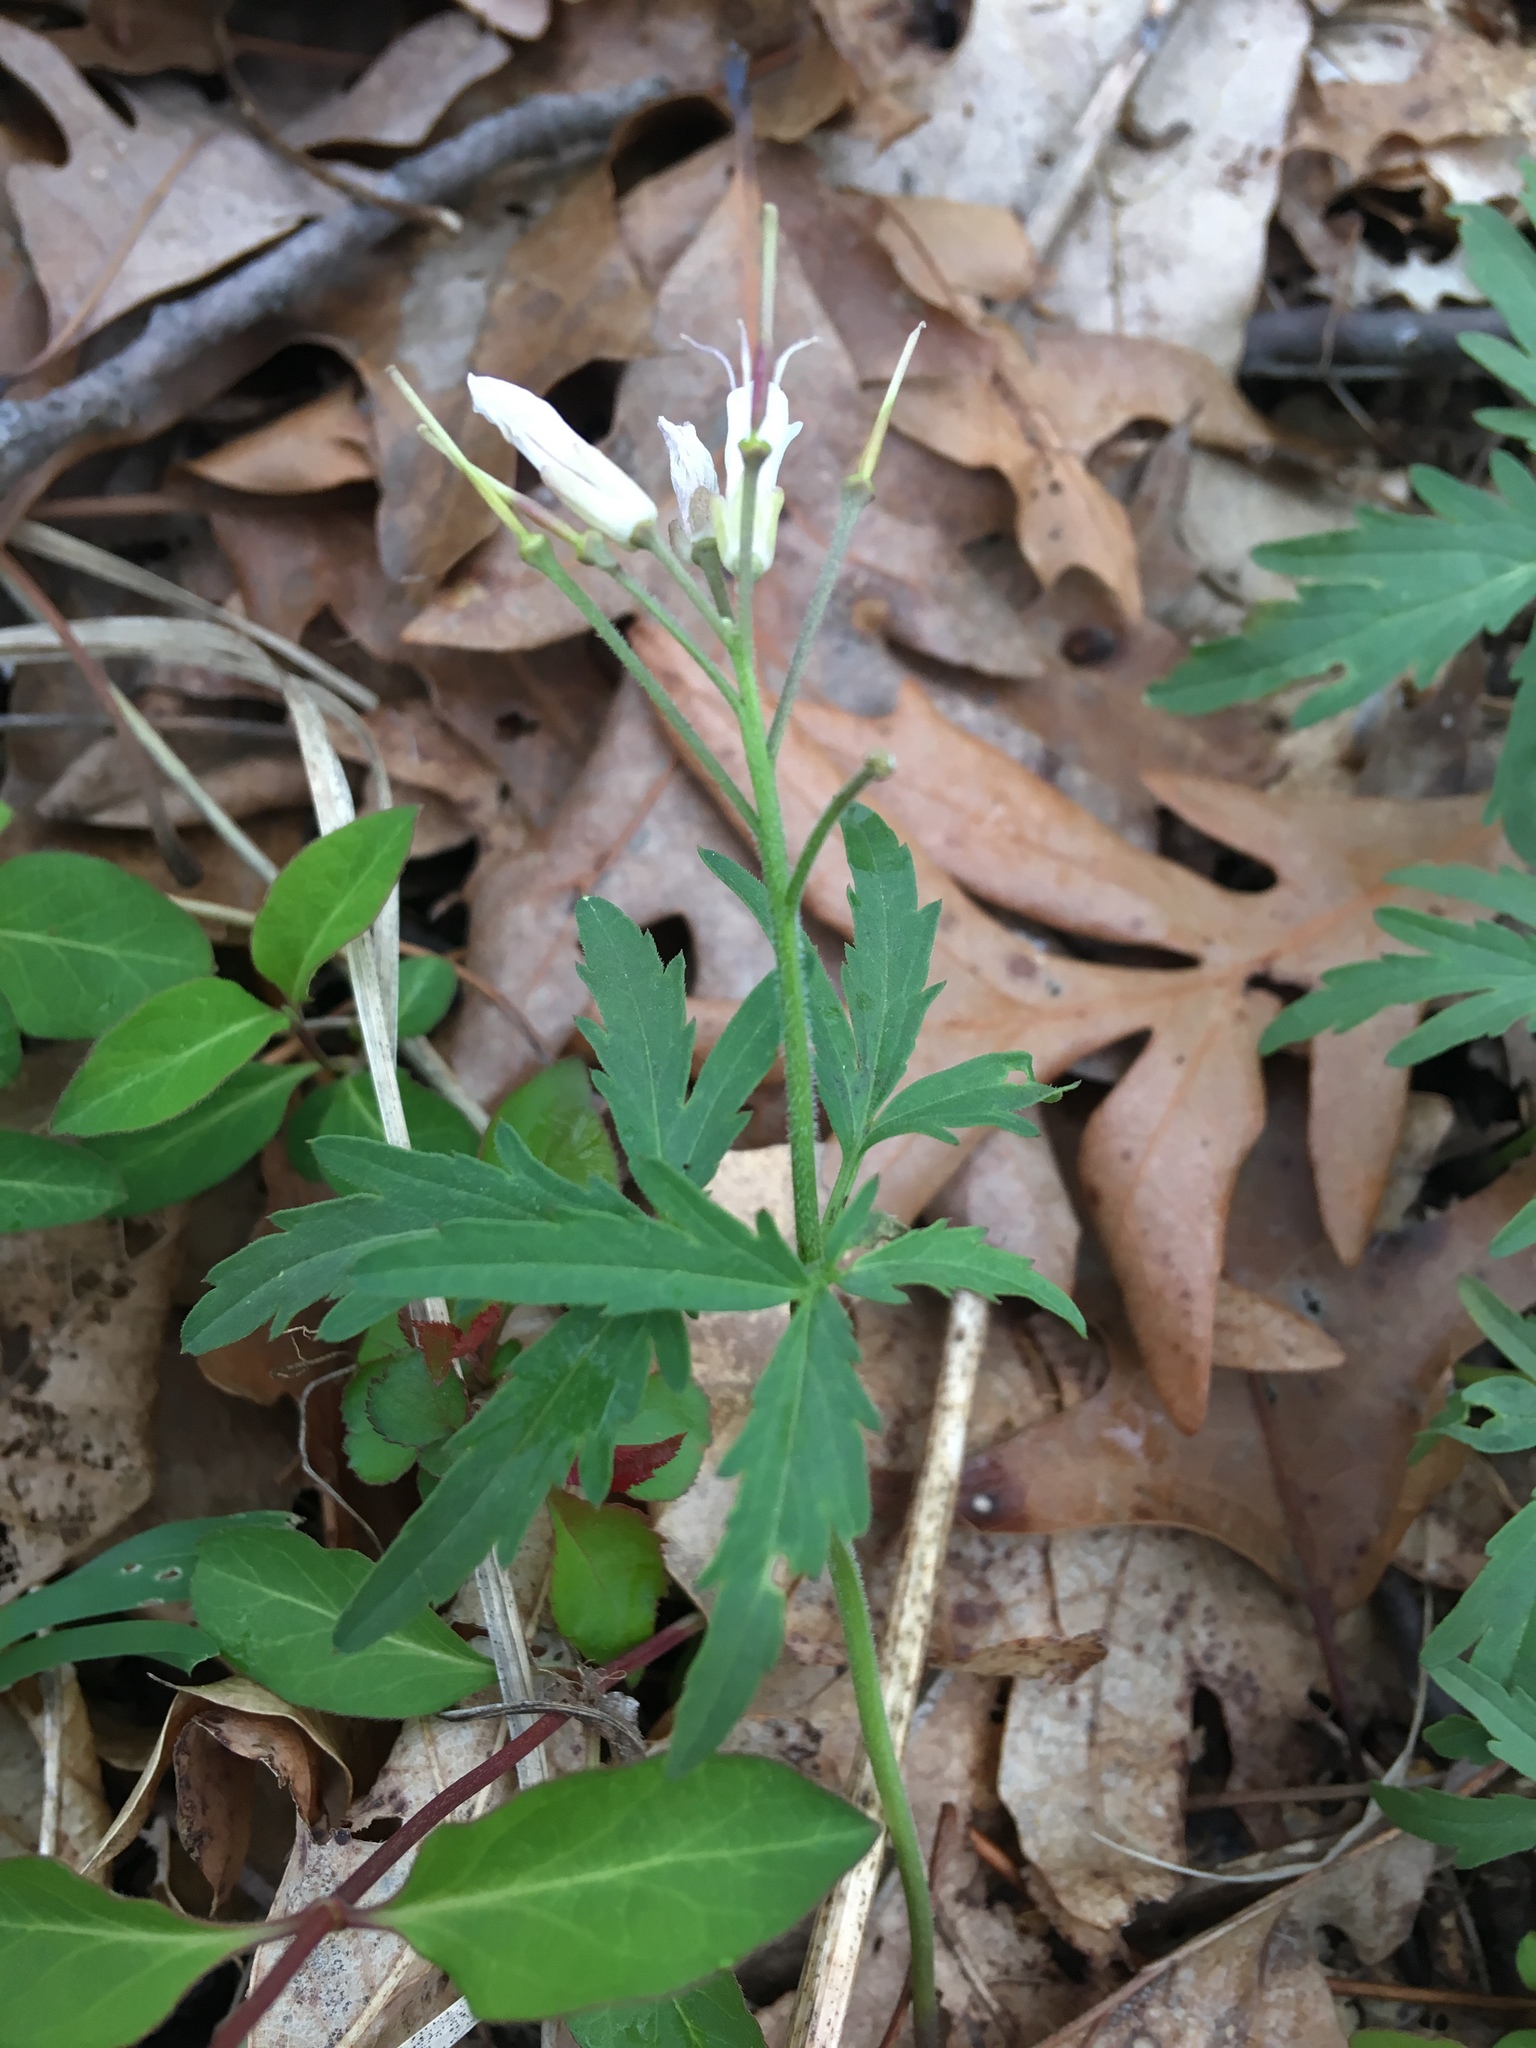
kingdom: Plantae
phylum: Tracheophyta
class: Magnoliopsida
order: Brassicales
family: Brassicaceae
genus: Cardamine
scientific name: Cardamine concatenata
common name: Cut-leaf toothcup
